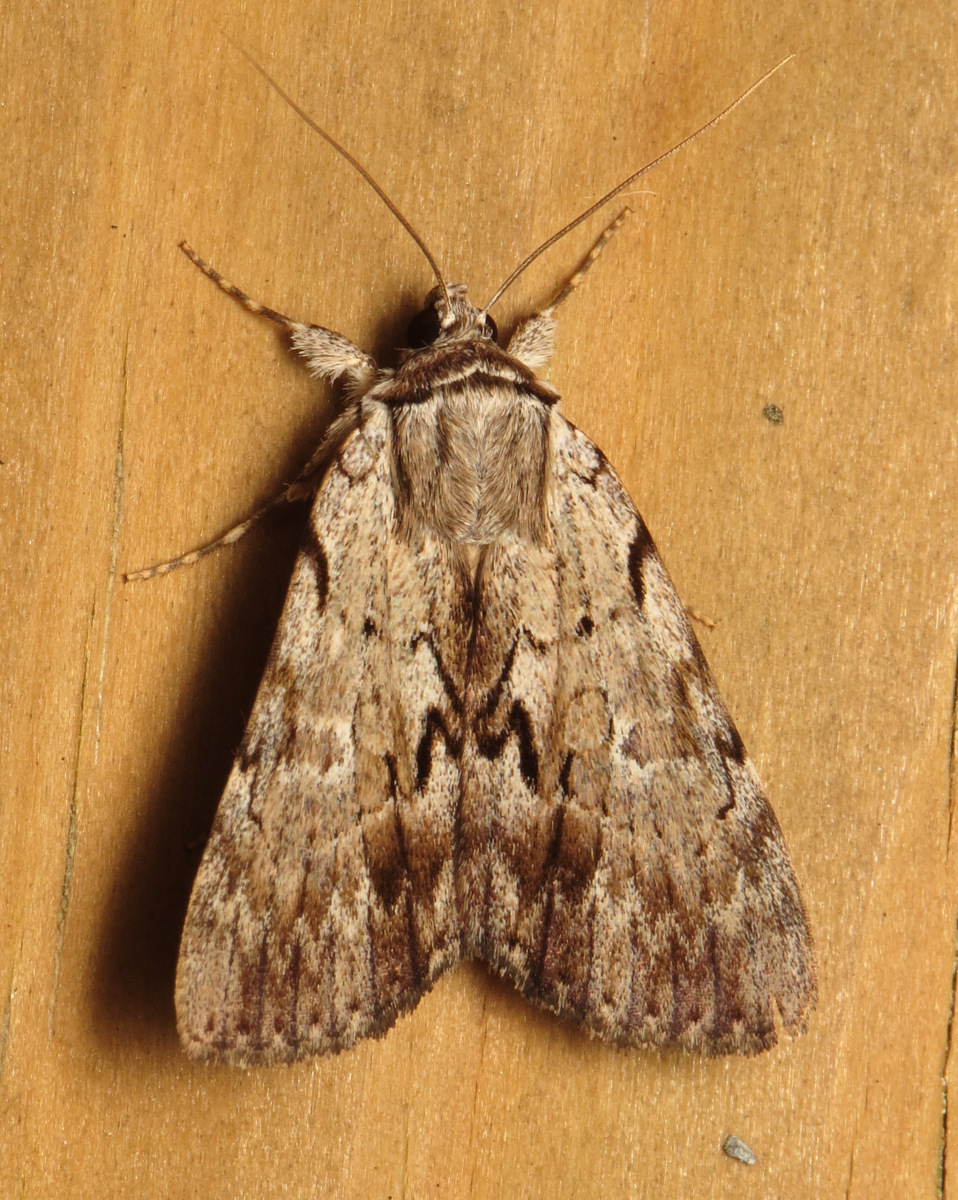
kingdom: Animalia
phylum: Arthropoda
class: Insecta
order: Lepidoptera
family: Erebidae
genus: Catocala
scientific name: Catocala gracilis
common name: Graceful underwing
